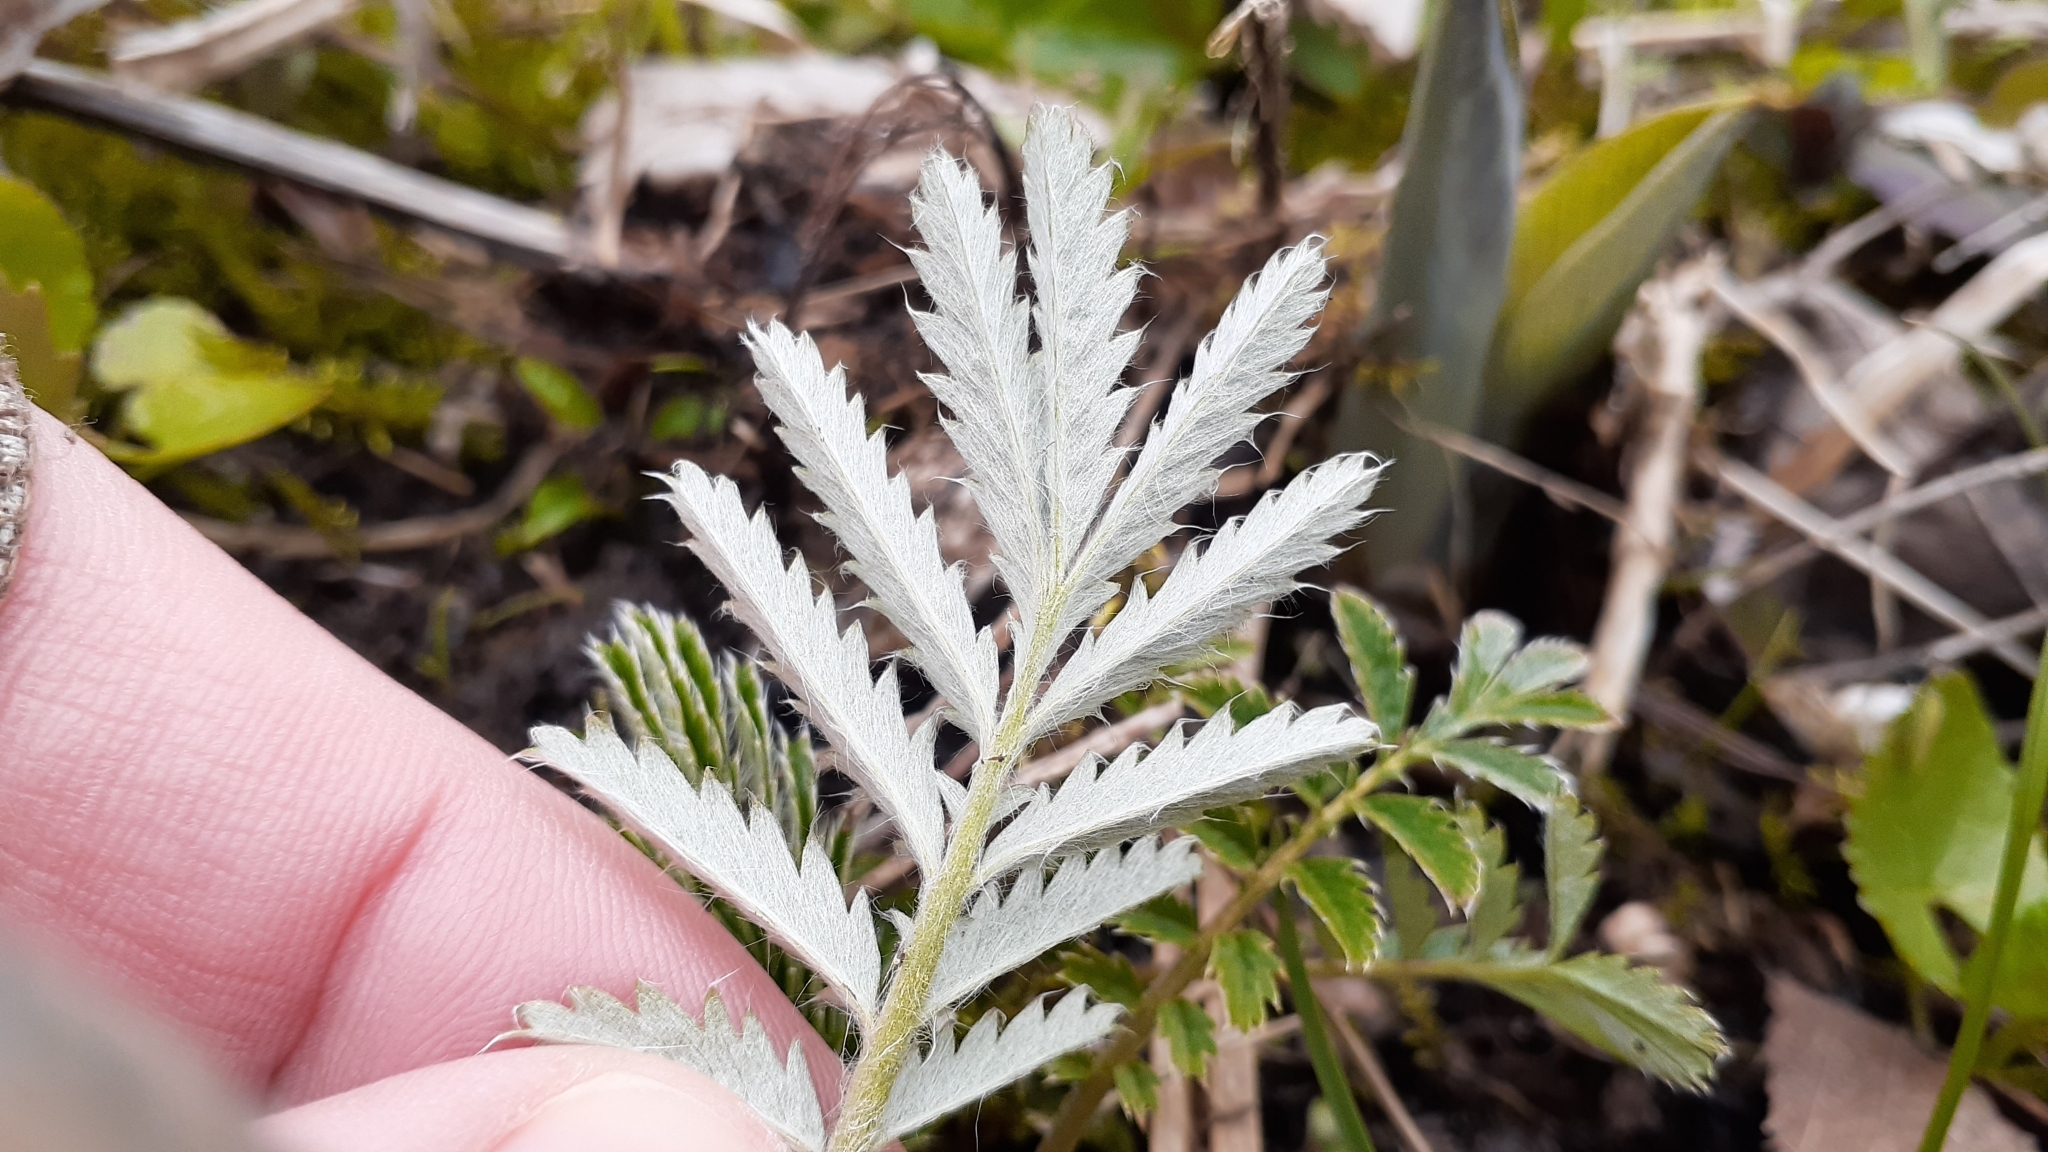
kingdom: Plantae
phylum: Tracheophyta
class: Magnoliopsida
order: Rosales
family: Rosaceae
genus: Argentina
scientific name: Argentina anserina
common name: Common silverweed
